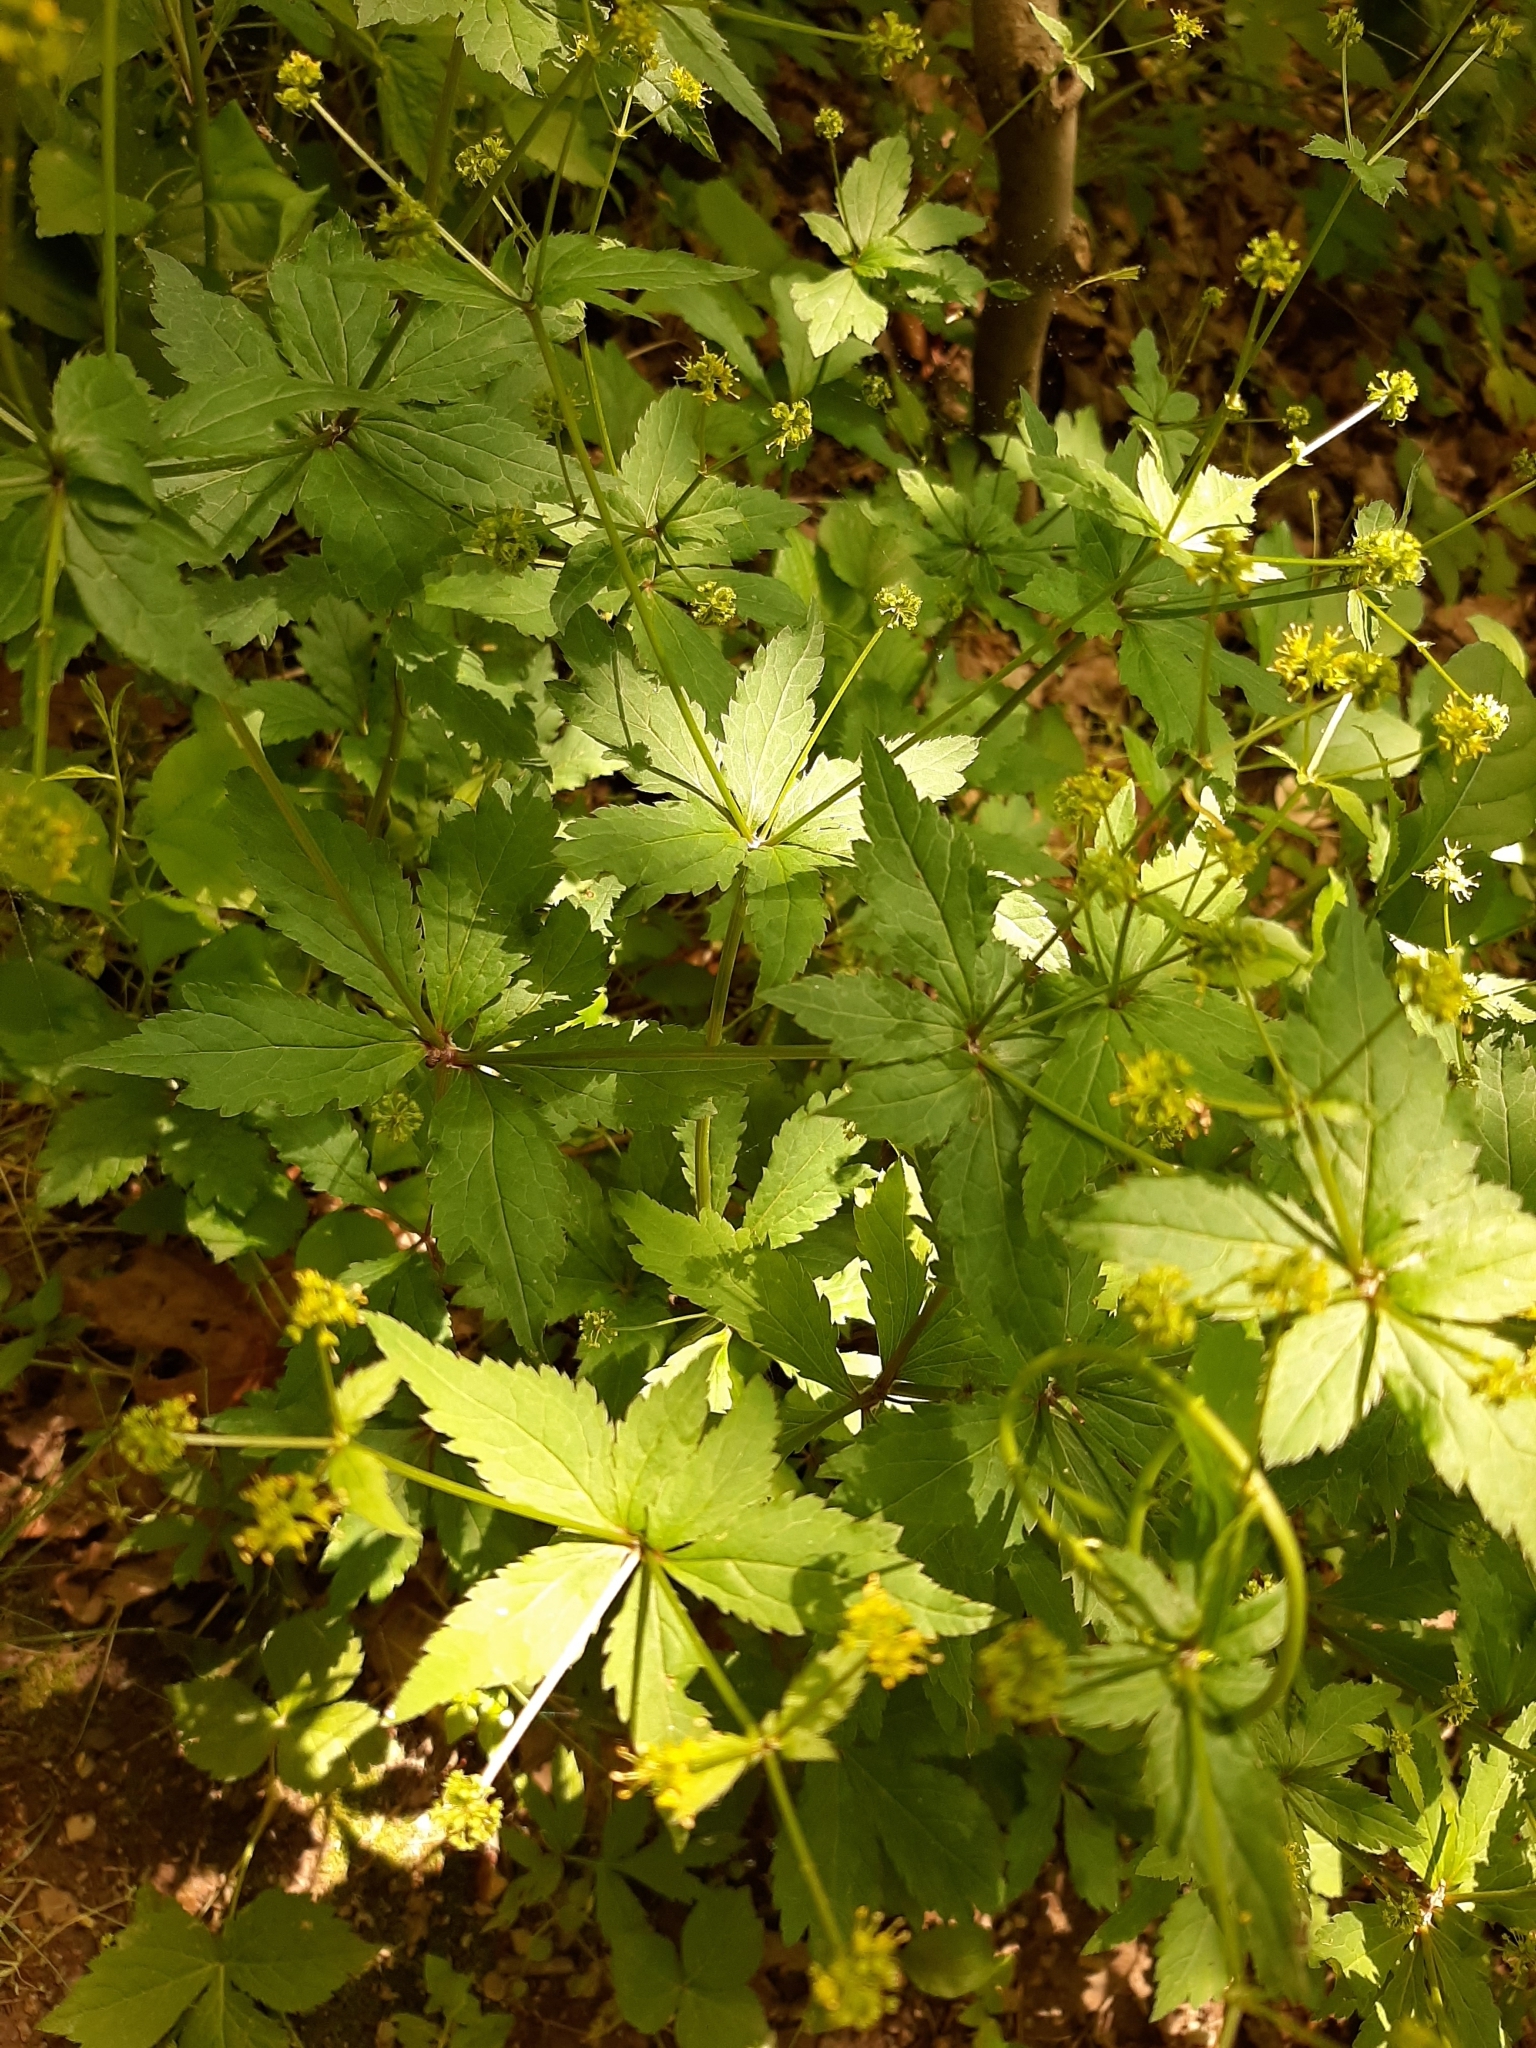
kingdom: Plantae
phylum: Tracheophyta
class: Magnoliopsida
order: Apiales
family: Apiaceae
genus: Sanicula
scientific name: Sanicula odorata
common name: Cluster sanicle
